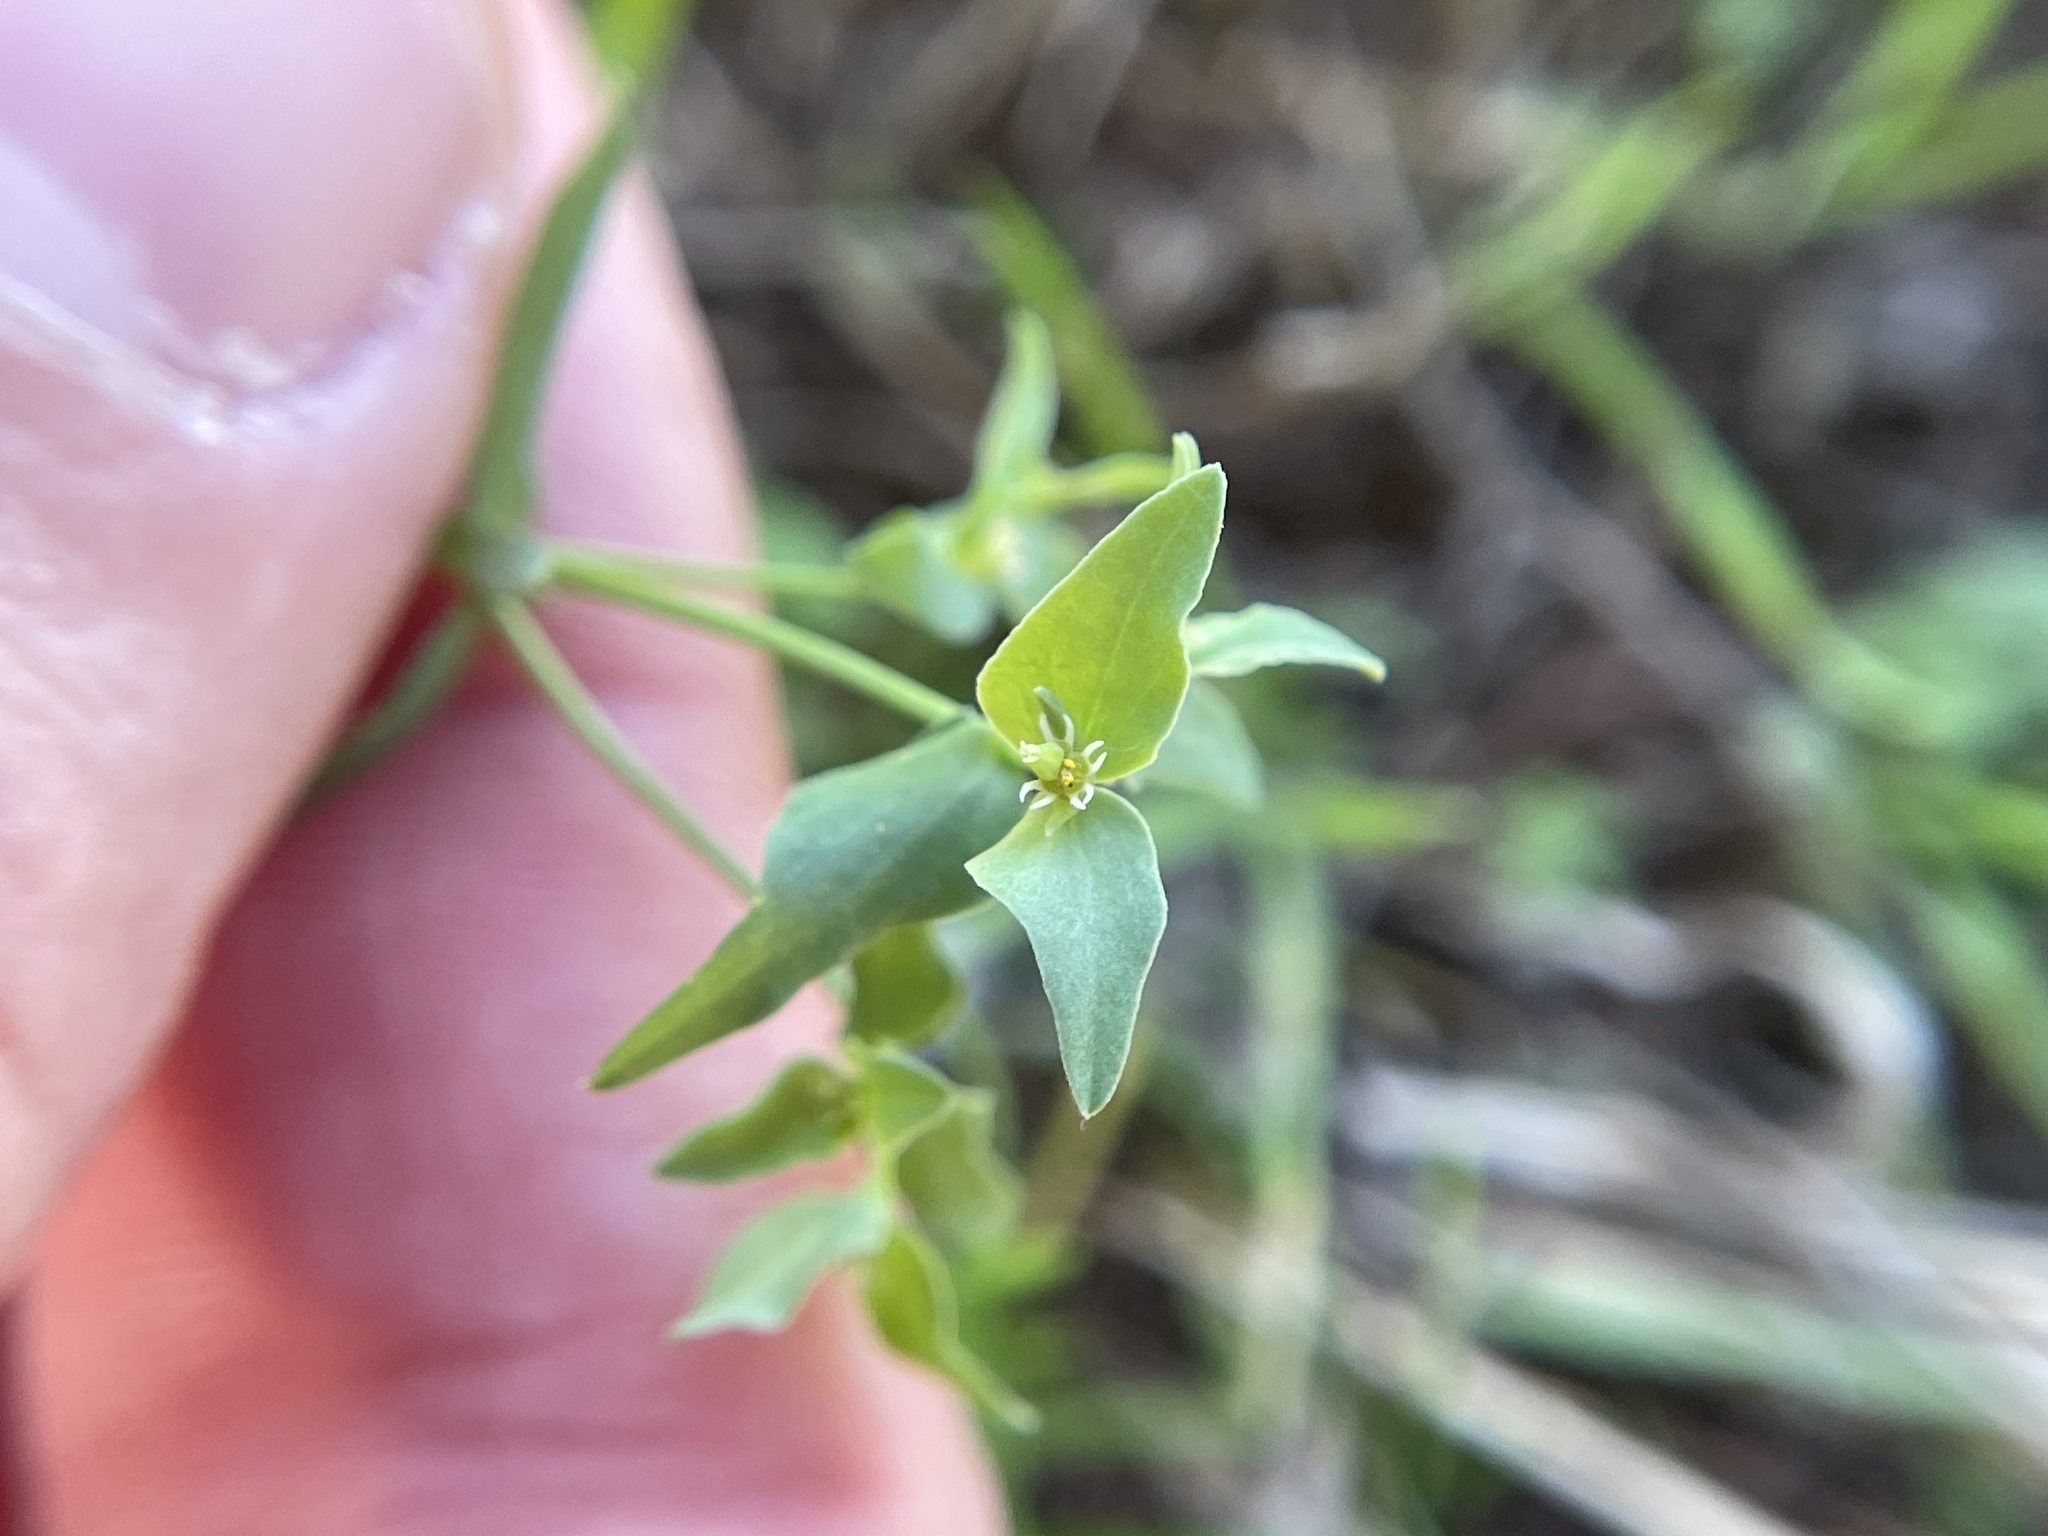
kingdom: Plantae
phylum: Tracheophyta
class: Magnoliopsida
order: Malpighiales
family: Euphorbiaceae
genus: Euphorbia
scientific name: Euphorbia peplidion
